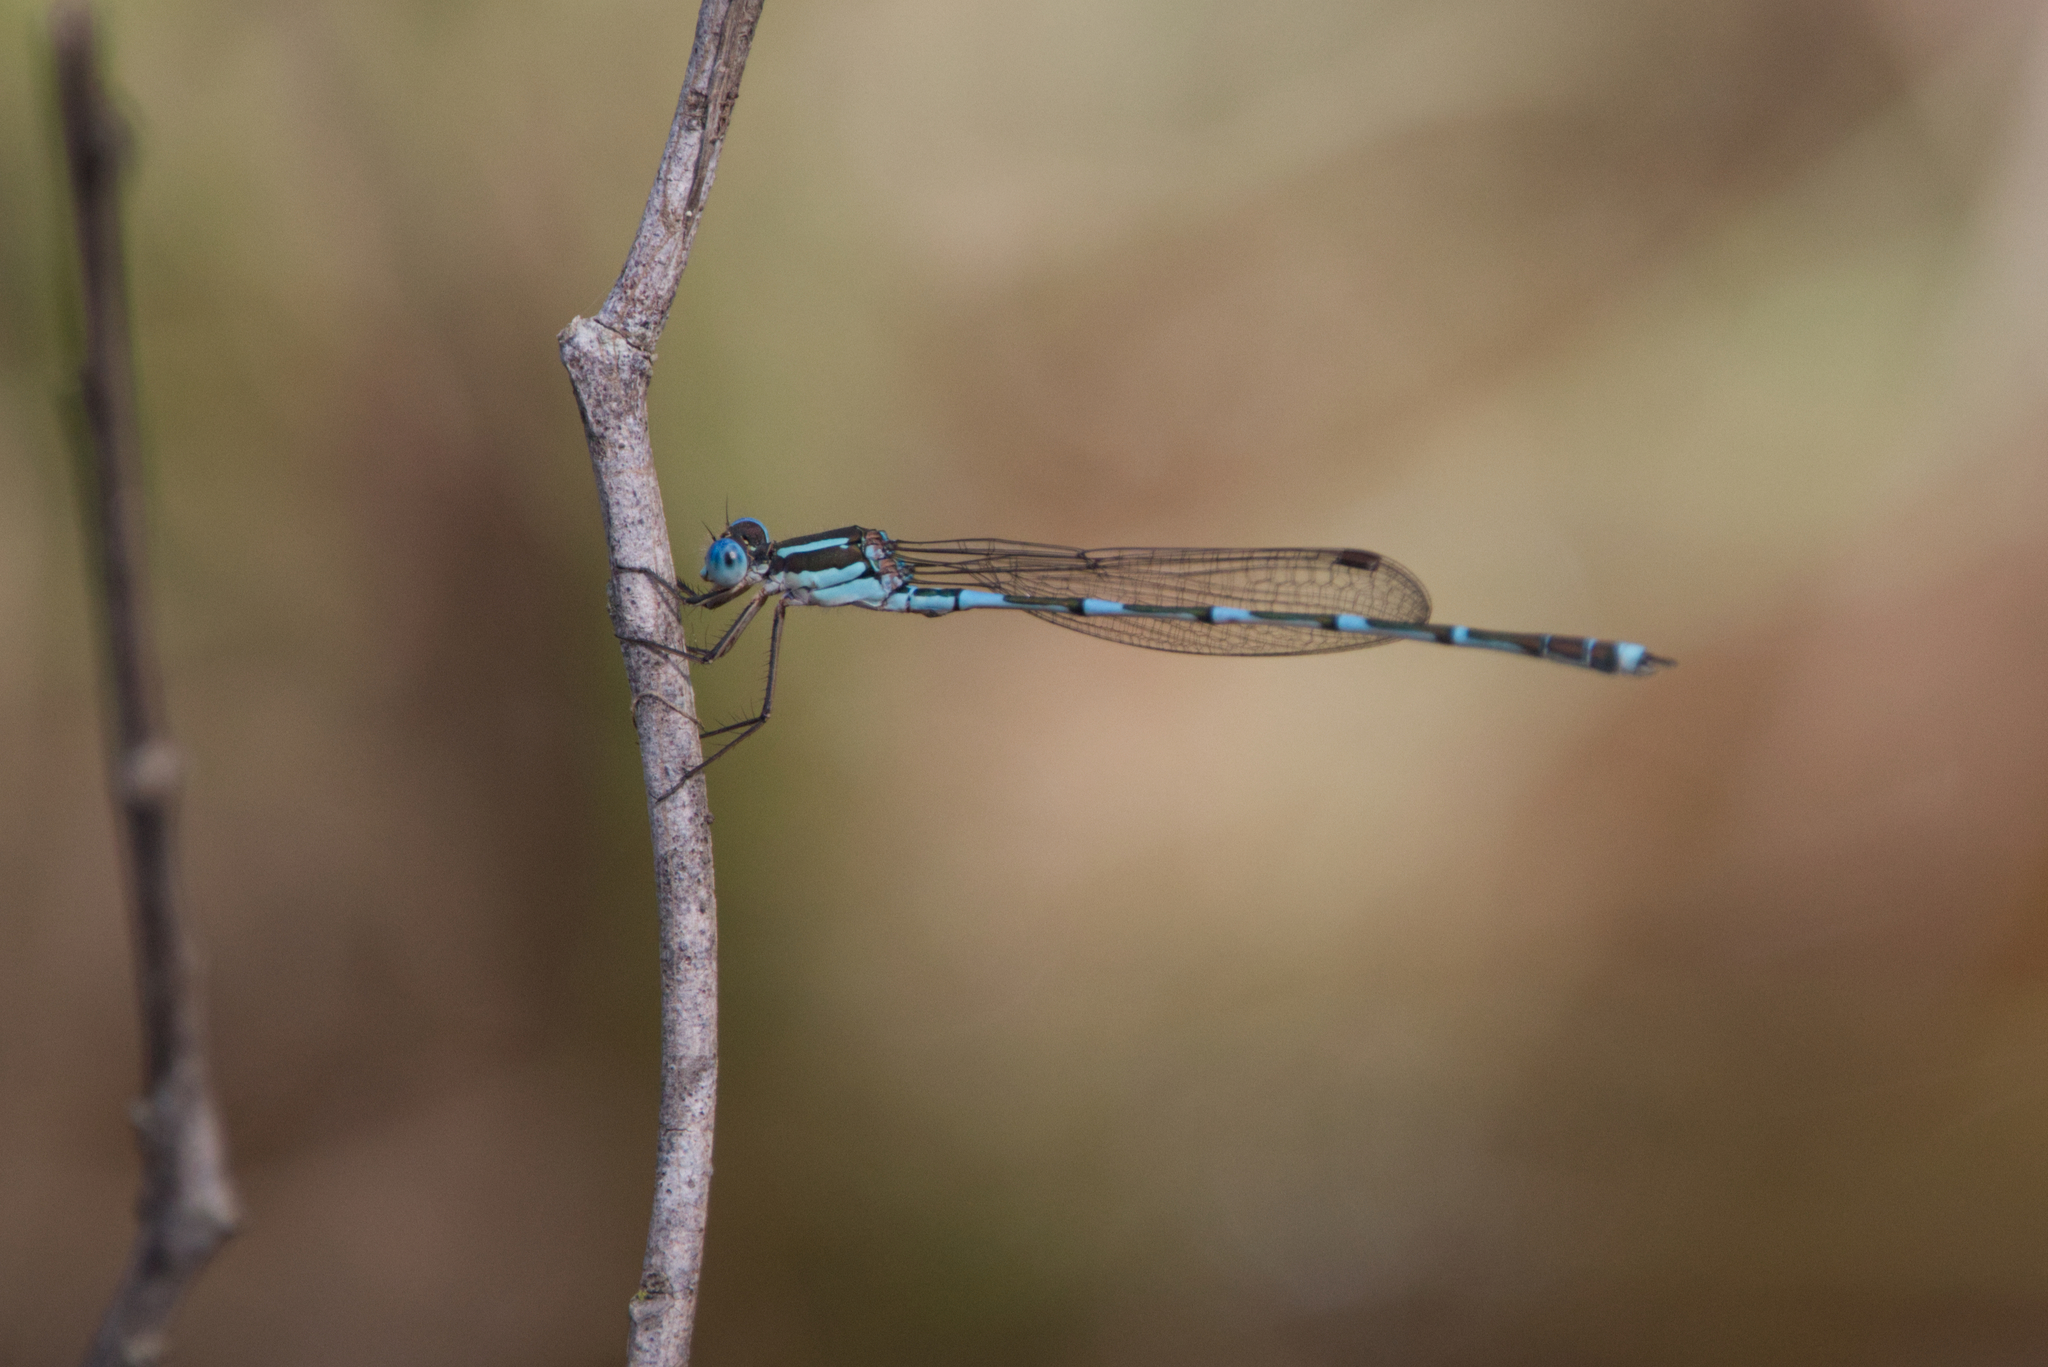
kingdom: Animalia
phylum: Arthropoda
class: Insecta
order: Odonata
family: Lestidae
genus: Austrolestes
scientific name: Austrolestes leda
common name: Wandering ringtail
